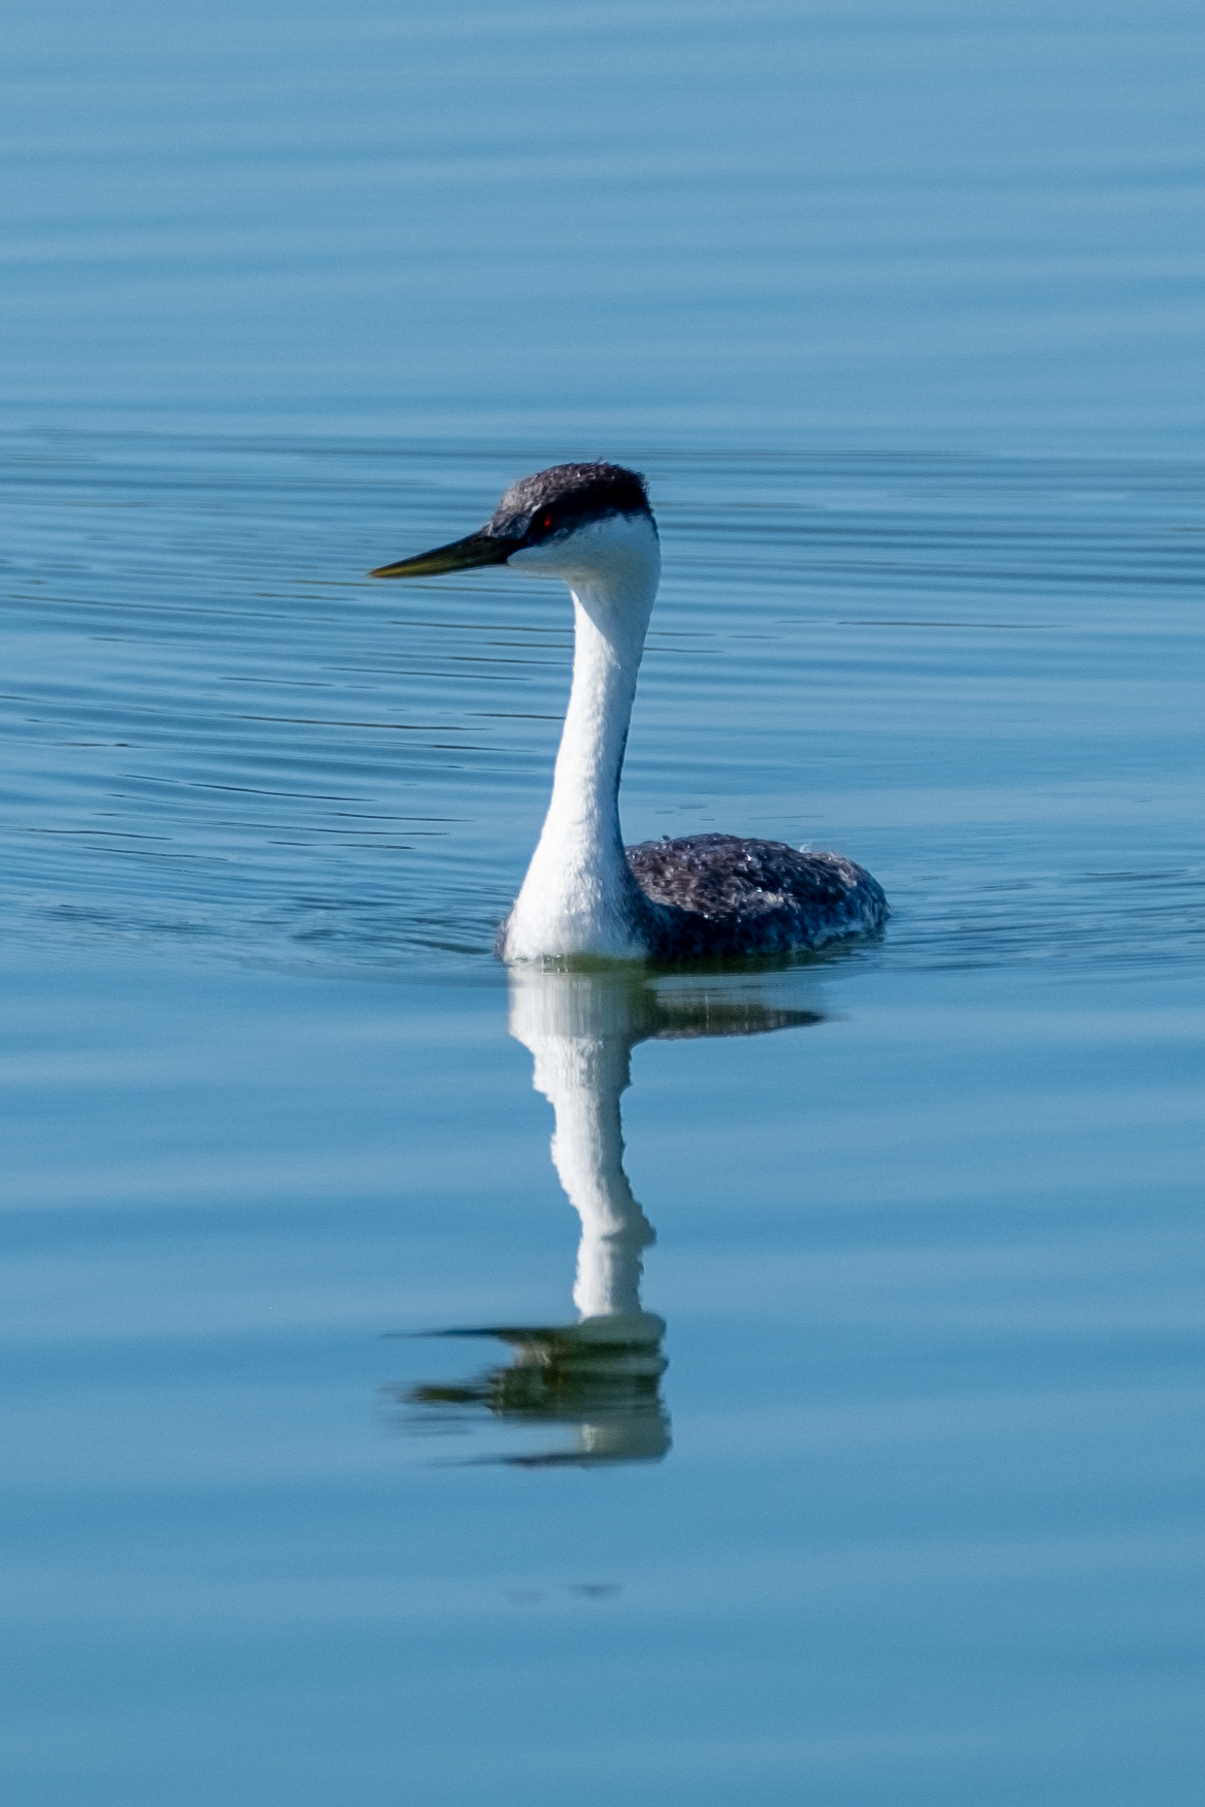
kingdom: Animalia
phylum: Chordata
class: Aves
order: Podicipediformes
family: Podicipedidae
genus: Aechmophorus
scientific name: Aechmophorus occidentalis
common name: Western grebe
